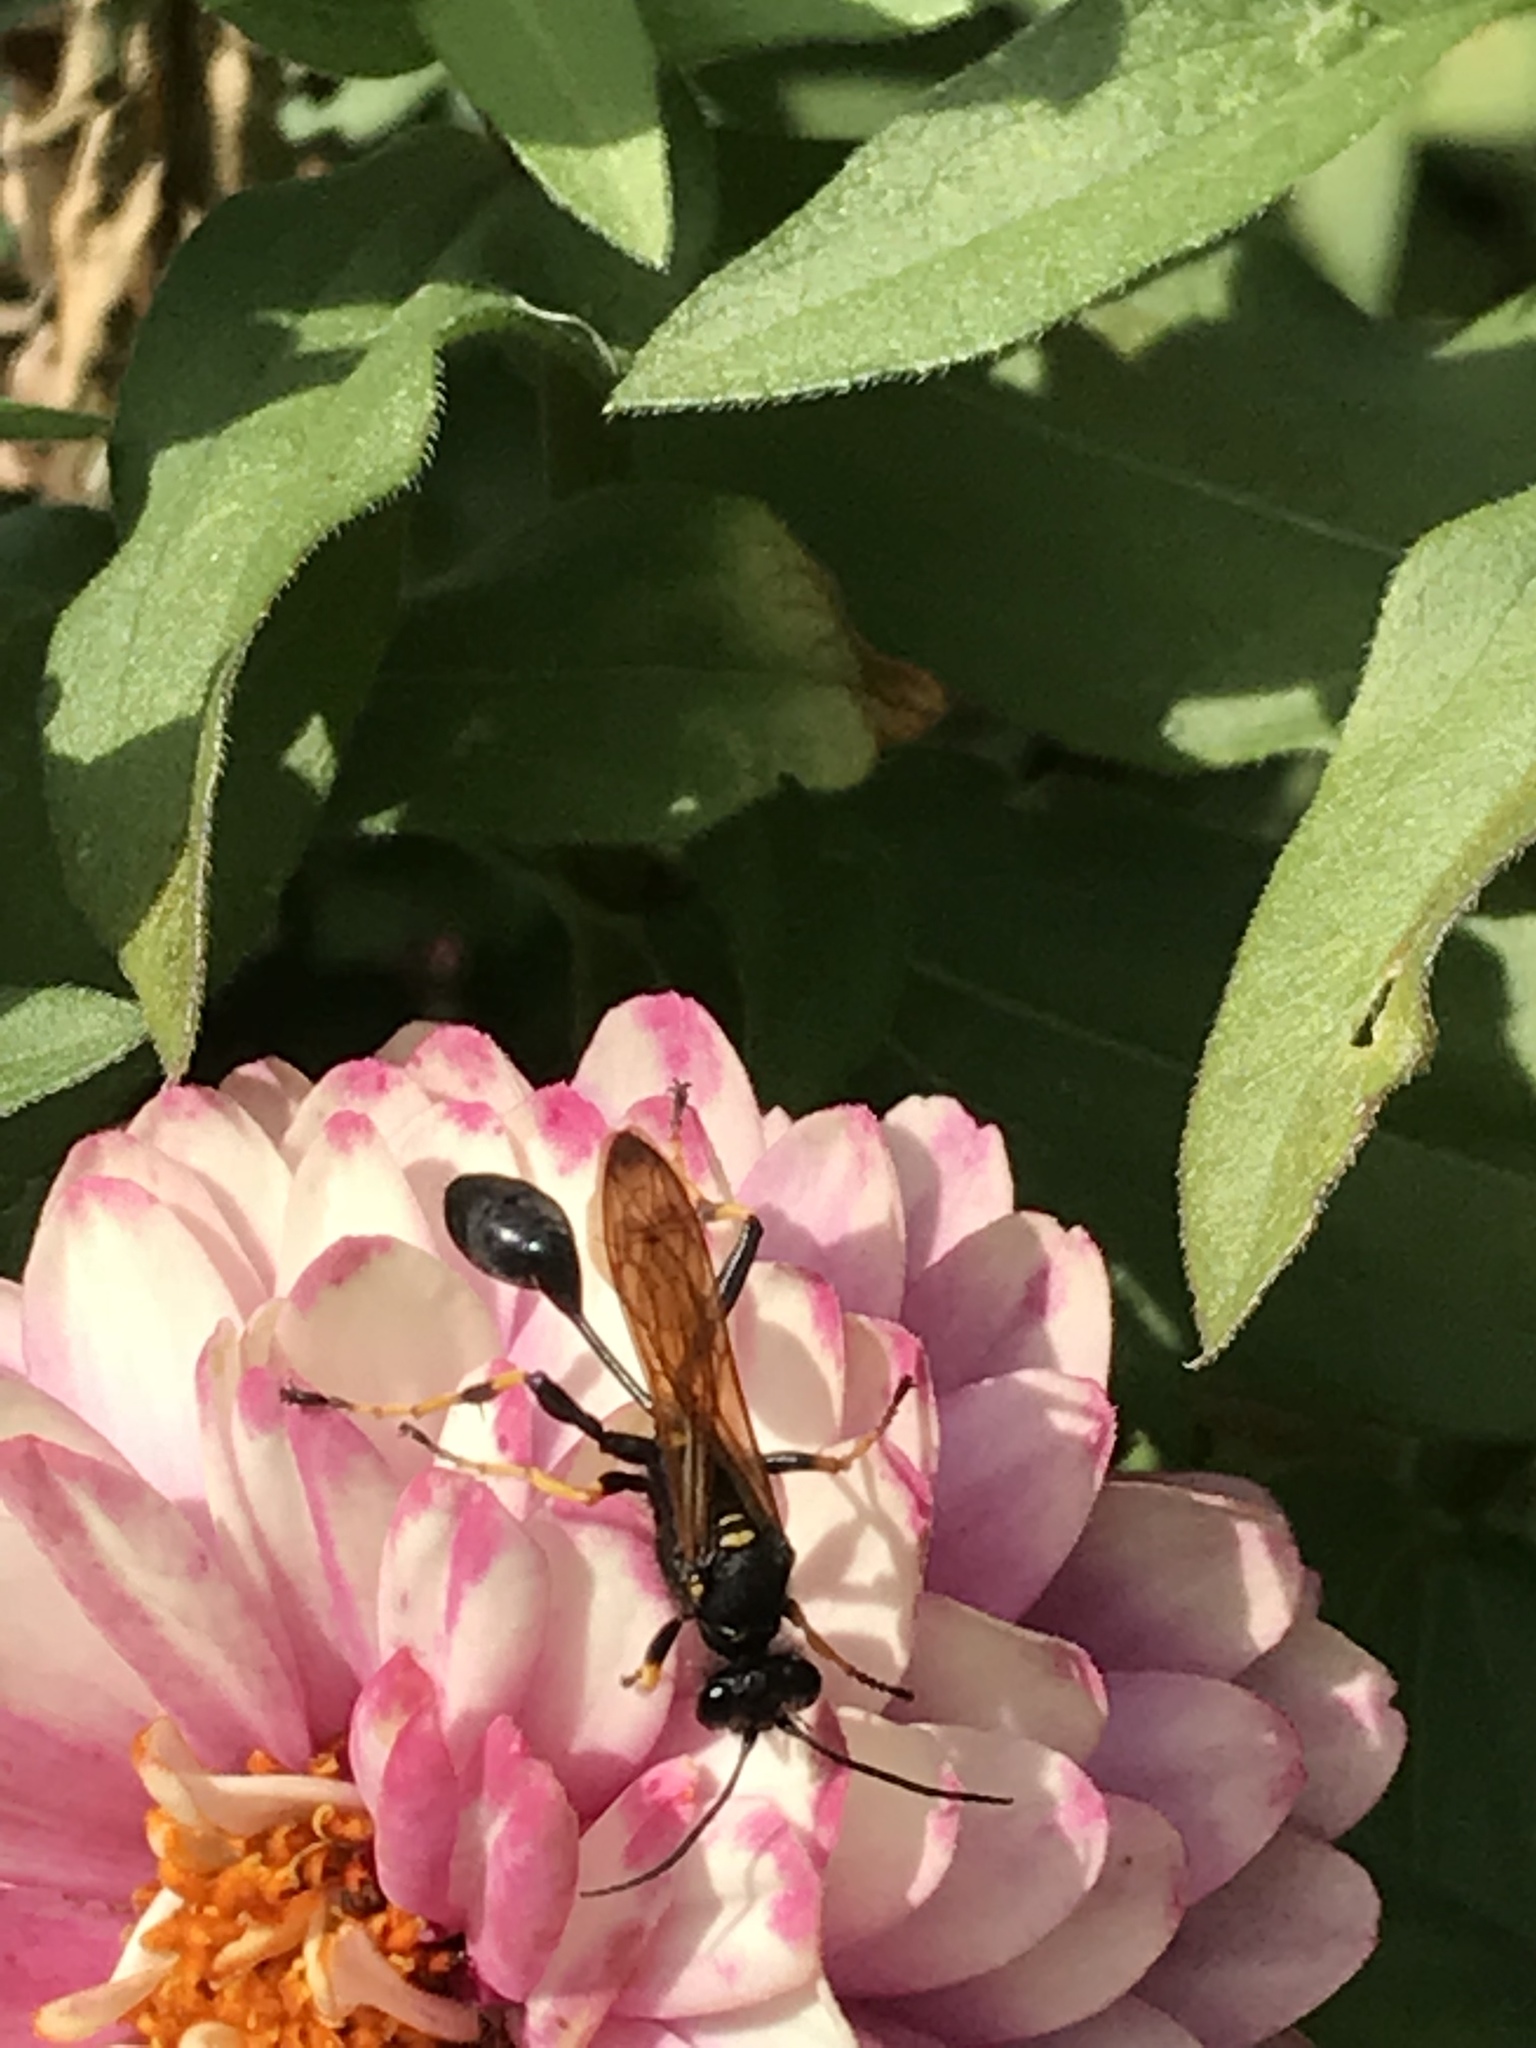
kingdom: Animalia
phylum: Arthropoda
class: Insecta
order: Hymenoptera
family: Sphecidae
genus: Sceliphron
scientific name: Sceliphron caementarium
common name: Mud dauber
